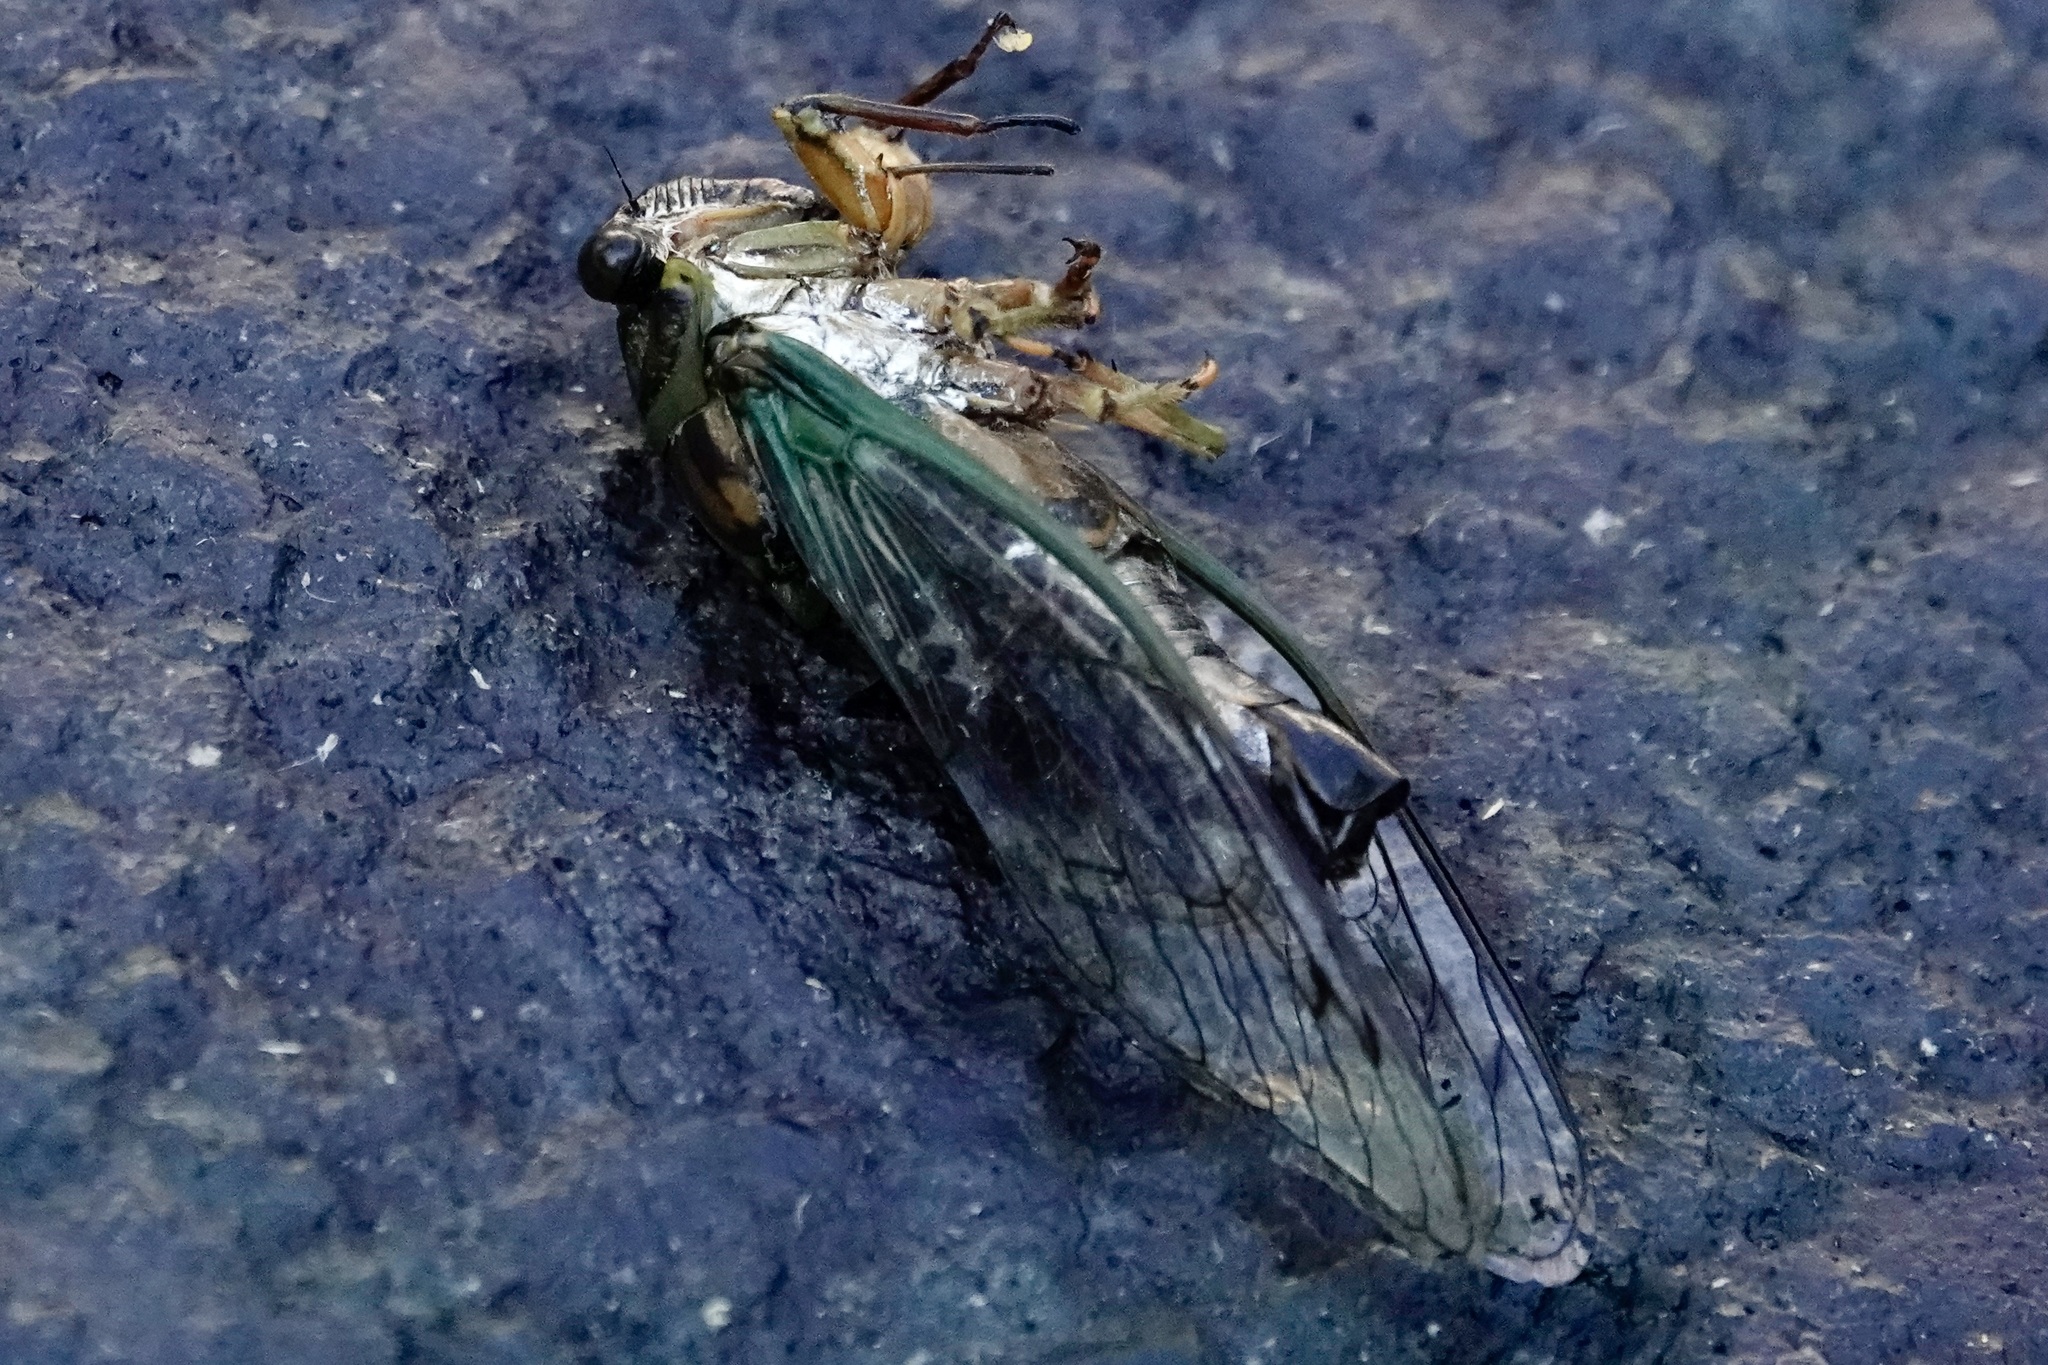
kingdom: Animalia
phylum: Arthropoda
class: Insecta
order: Hemiptera
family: Cicadidae
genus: Neotibicen
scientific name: Neotibicen linnei
